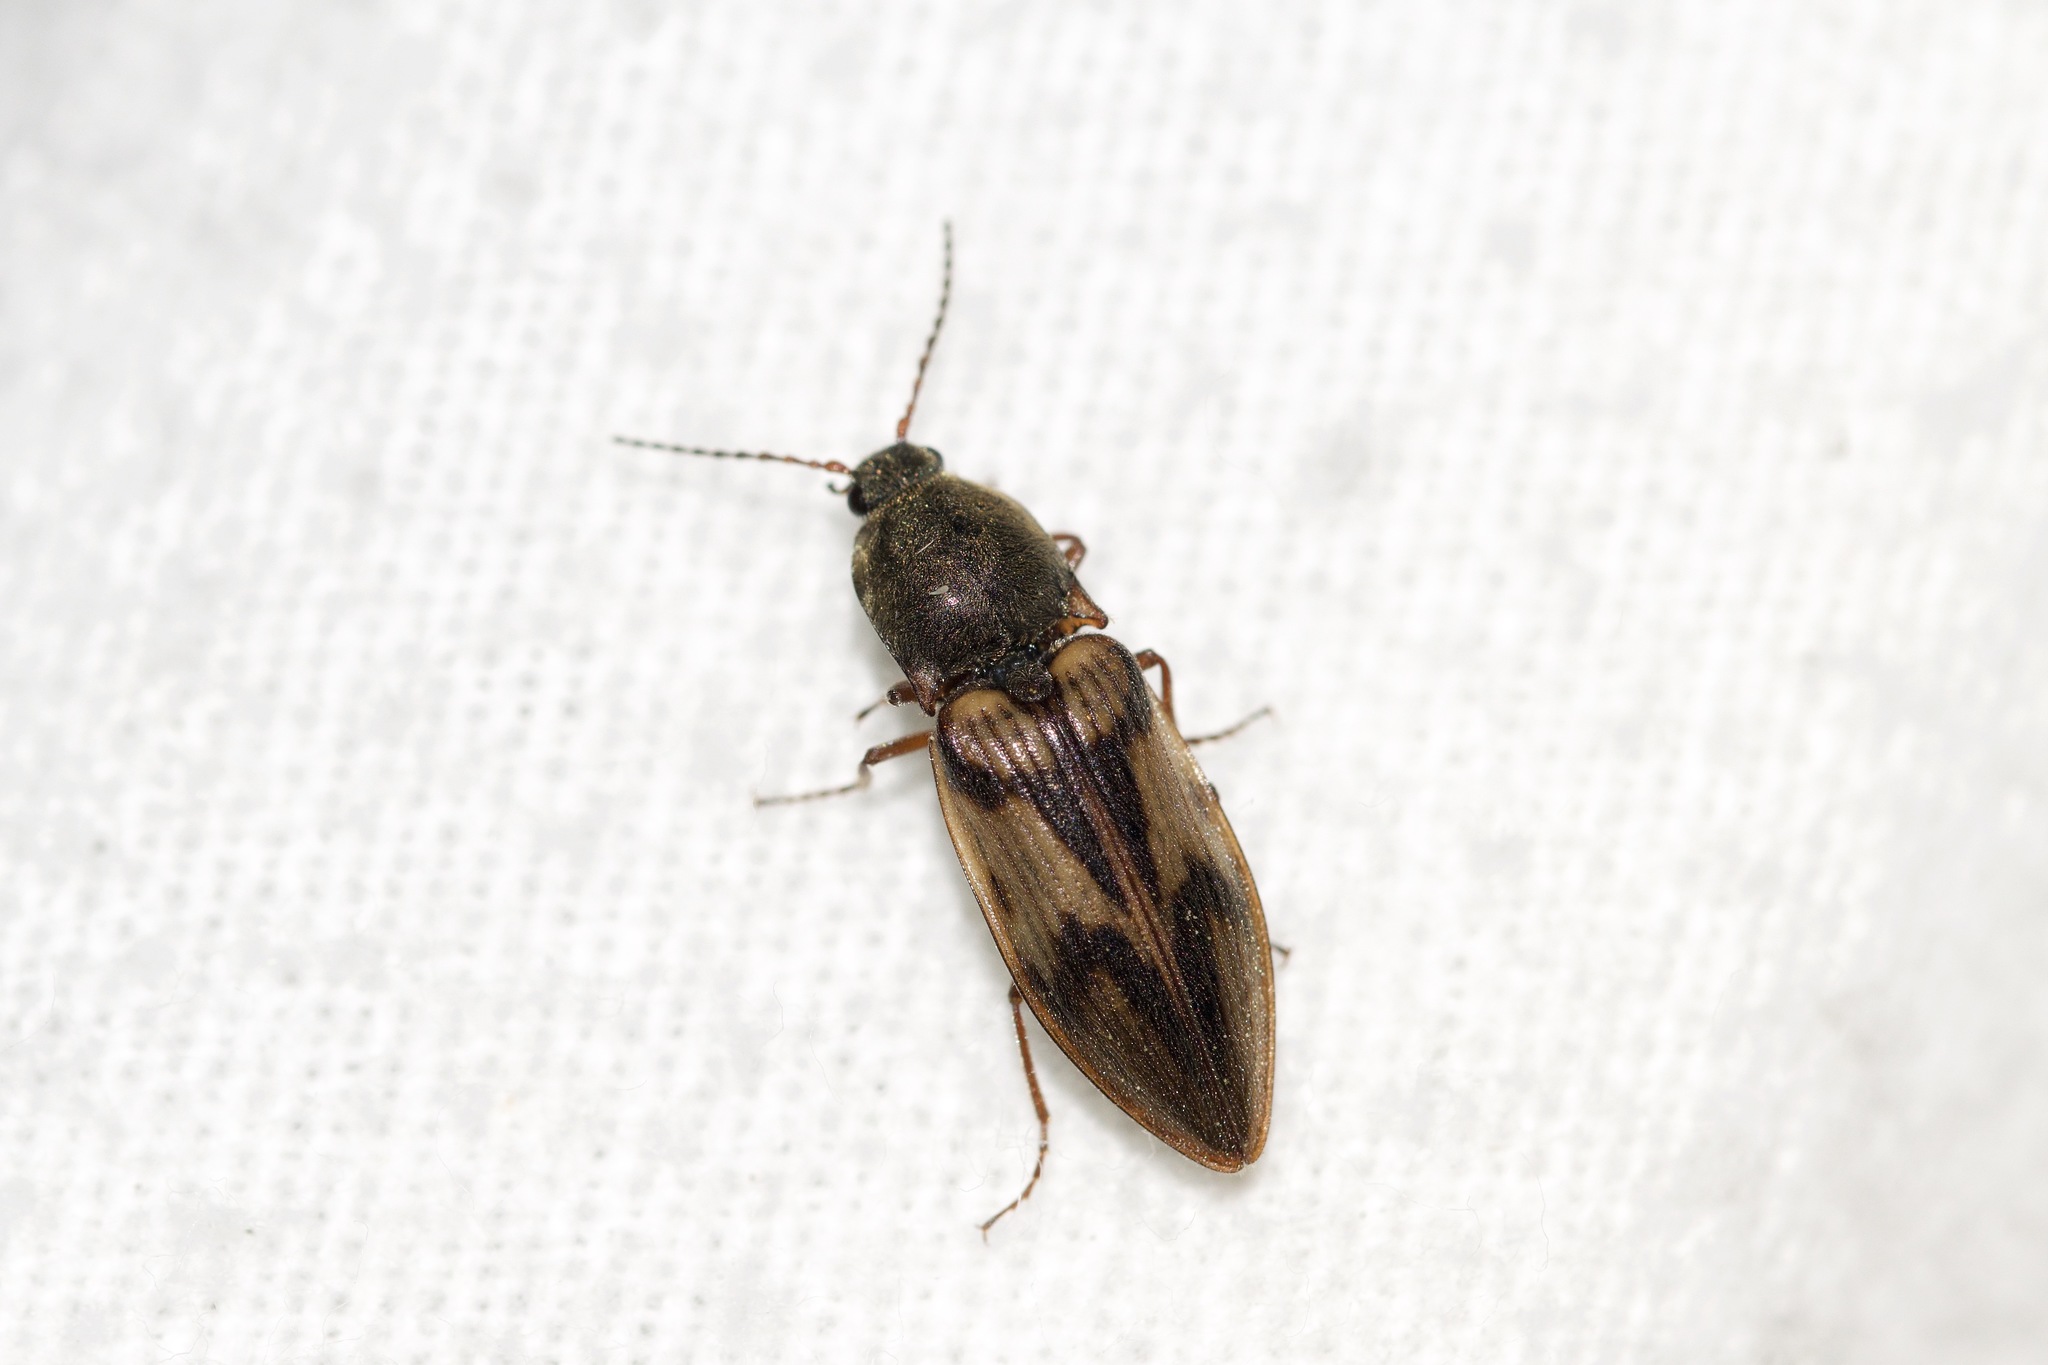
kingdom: Animalia
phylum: Arthropoda
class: Insecta
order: Coleoptera
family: Elateridae
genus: Stropenron
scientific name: Stropenron hieroglyphica
